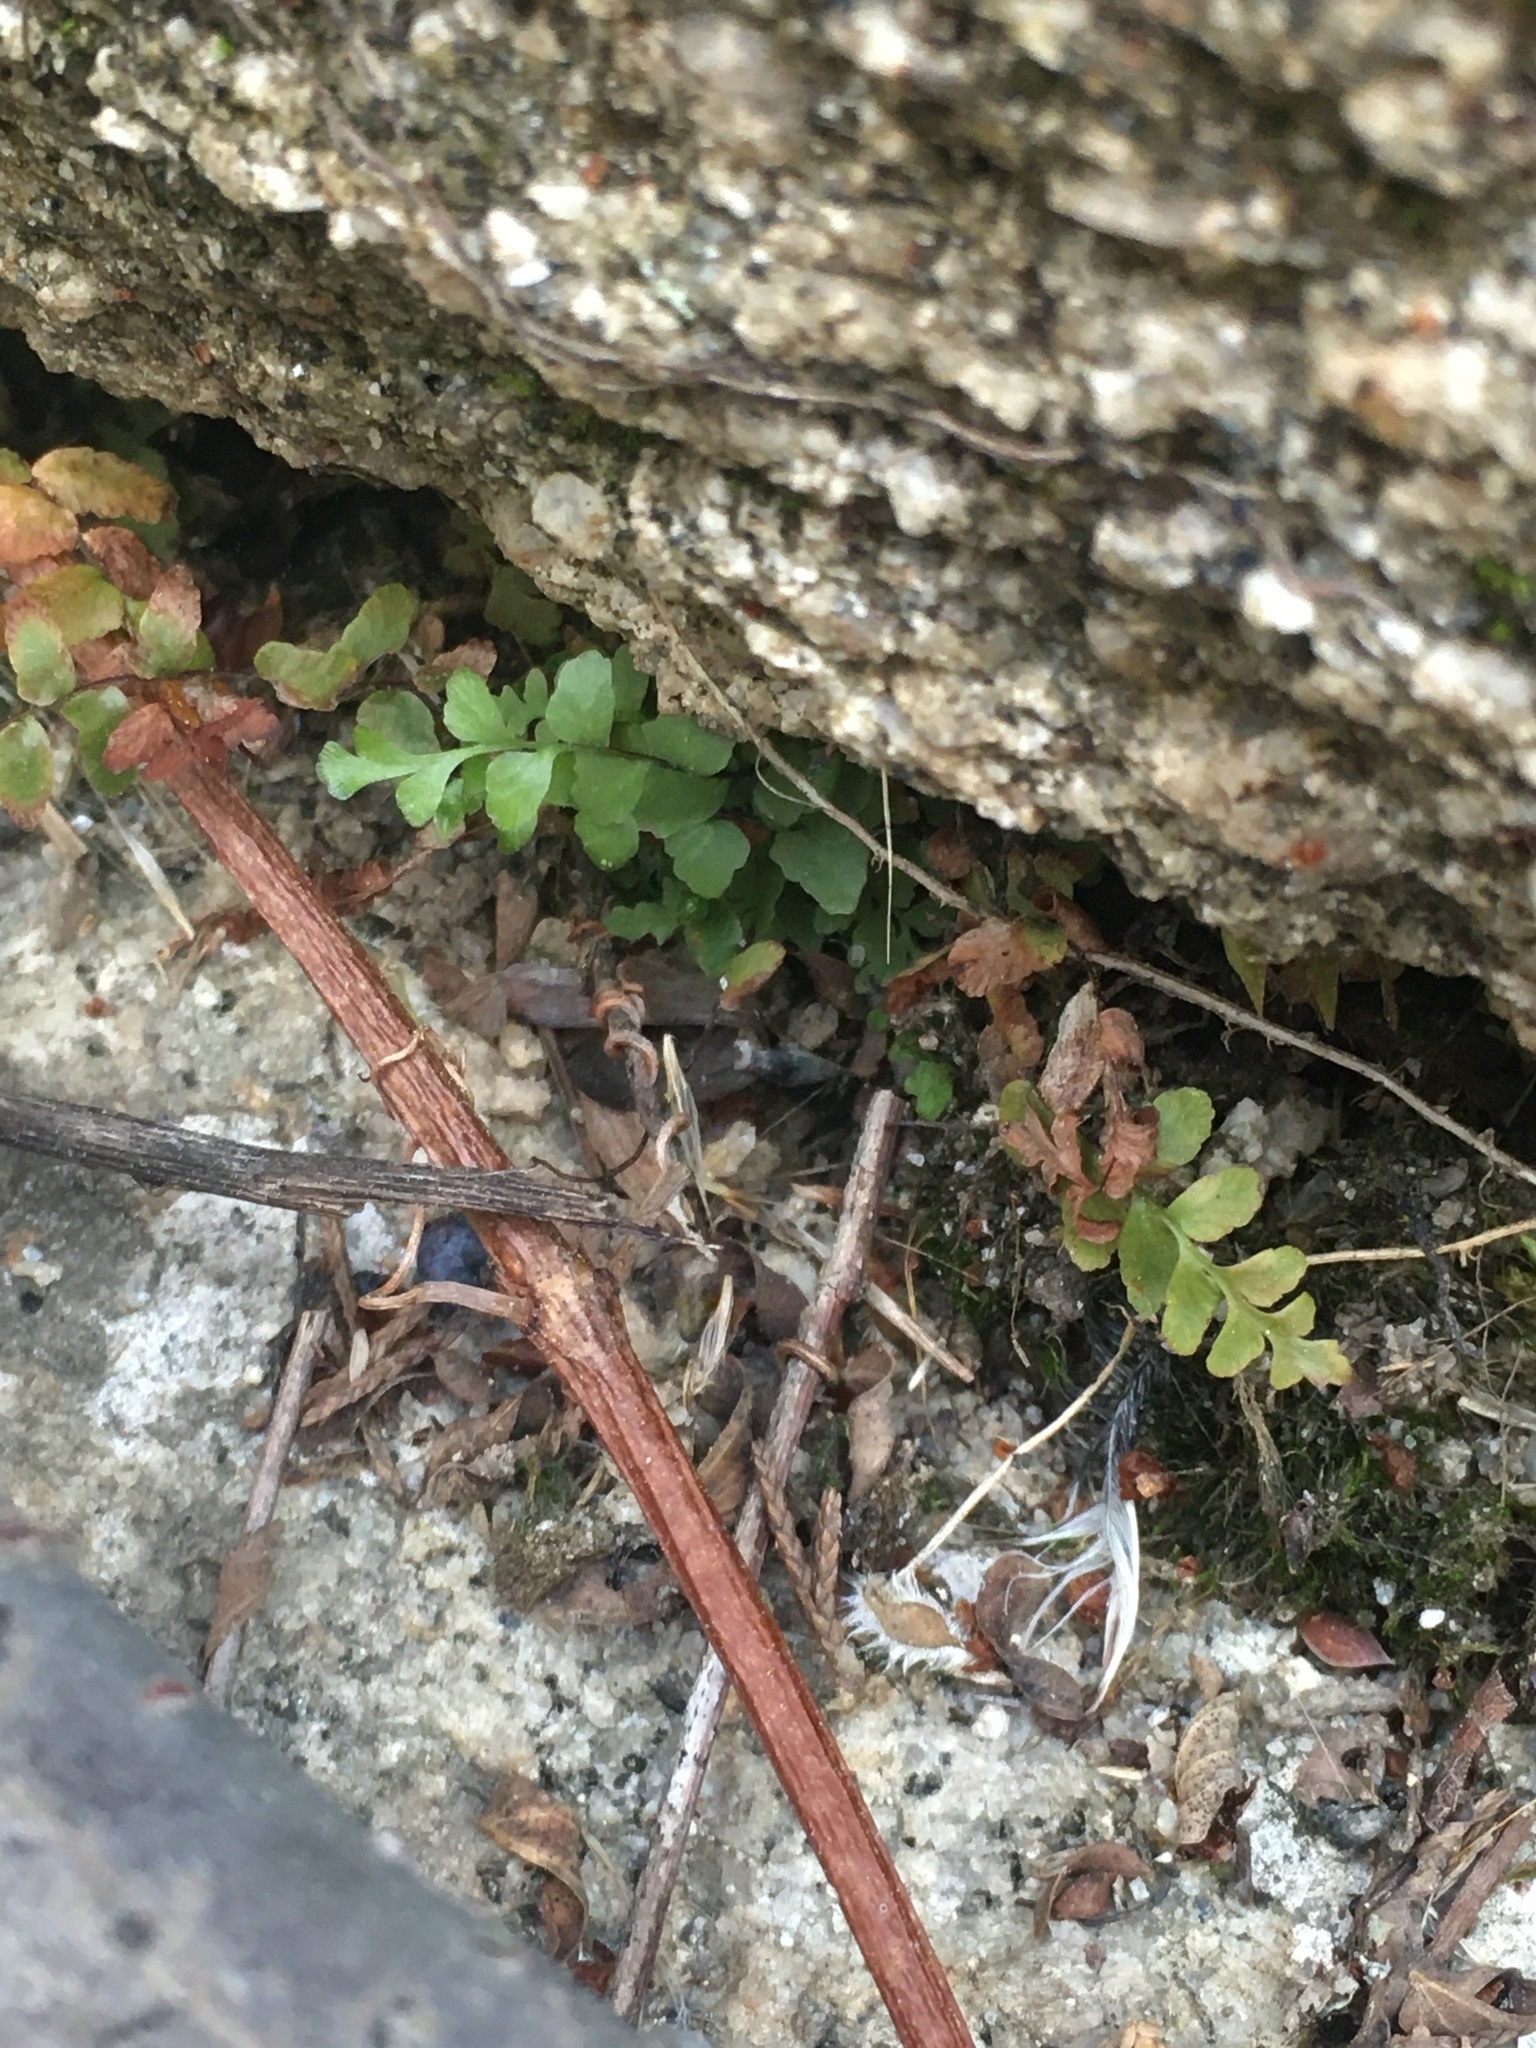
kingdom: Plantae
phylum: Tracheophyta
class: Polypodiopsida
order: Polypodiales
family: Aspleniaceae
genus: Asplenium
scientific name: Asplenium platyneuron
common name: Ebony spleenwort
